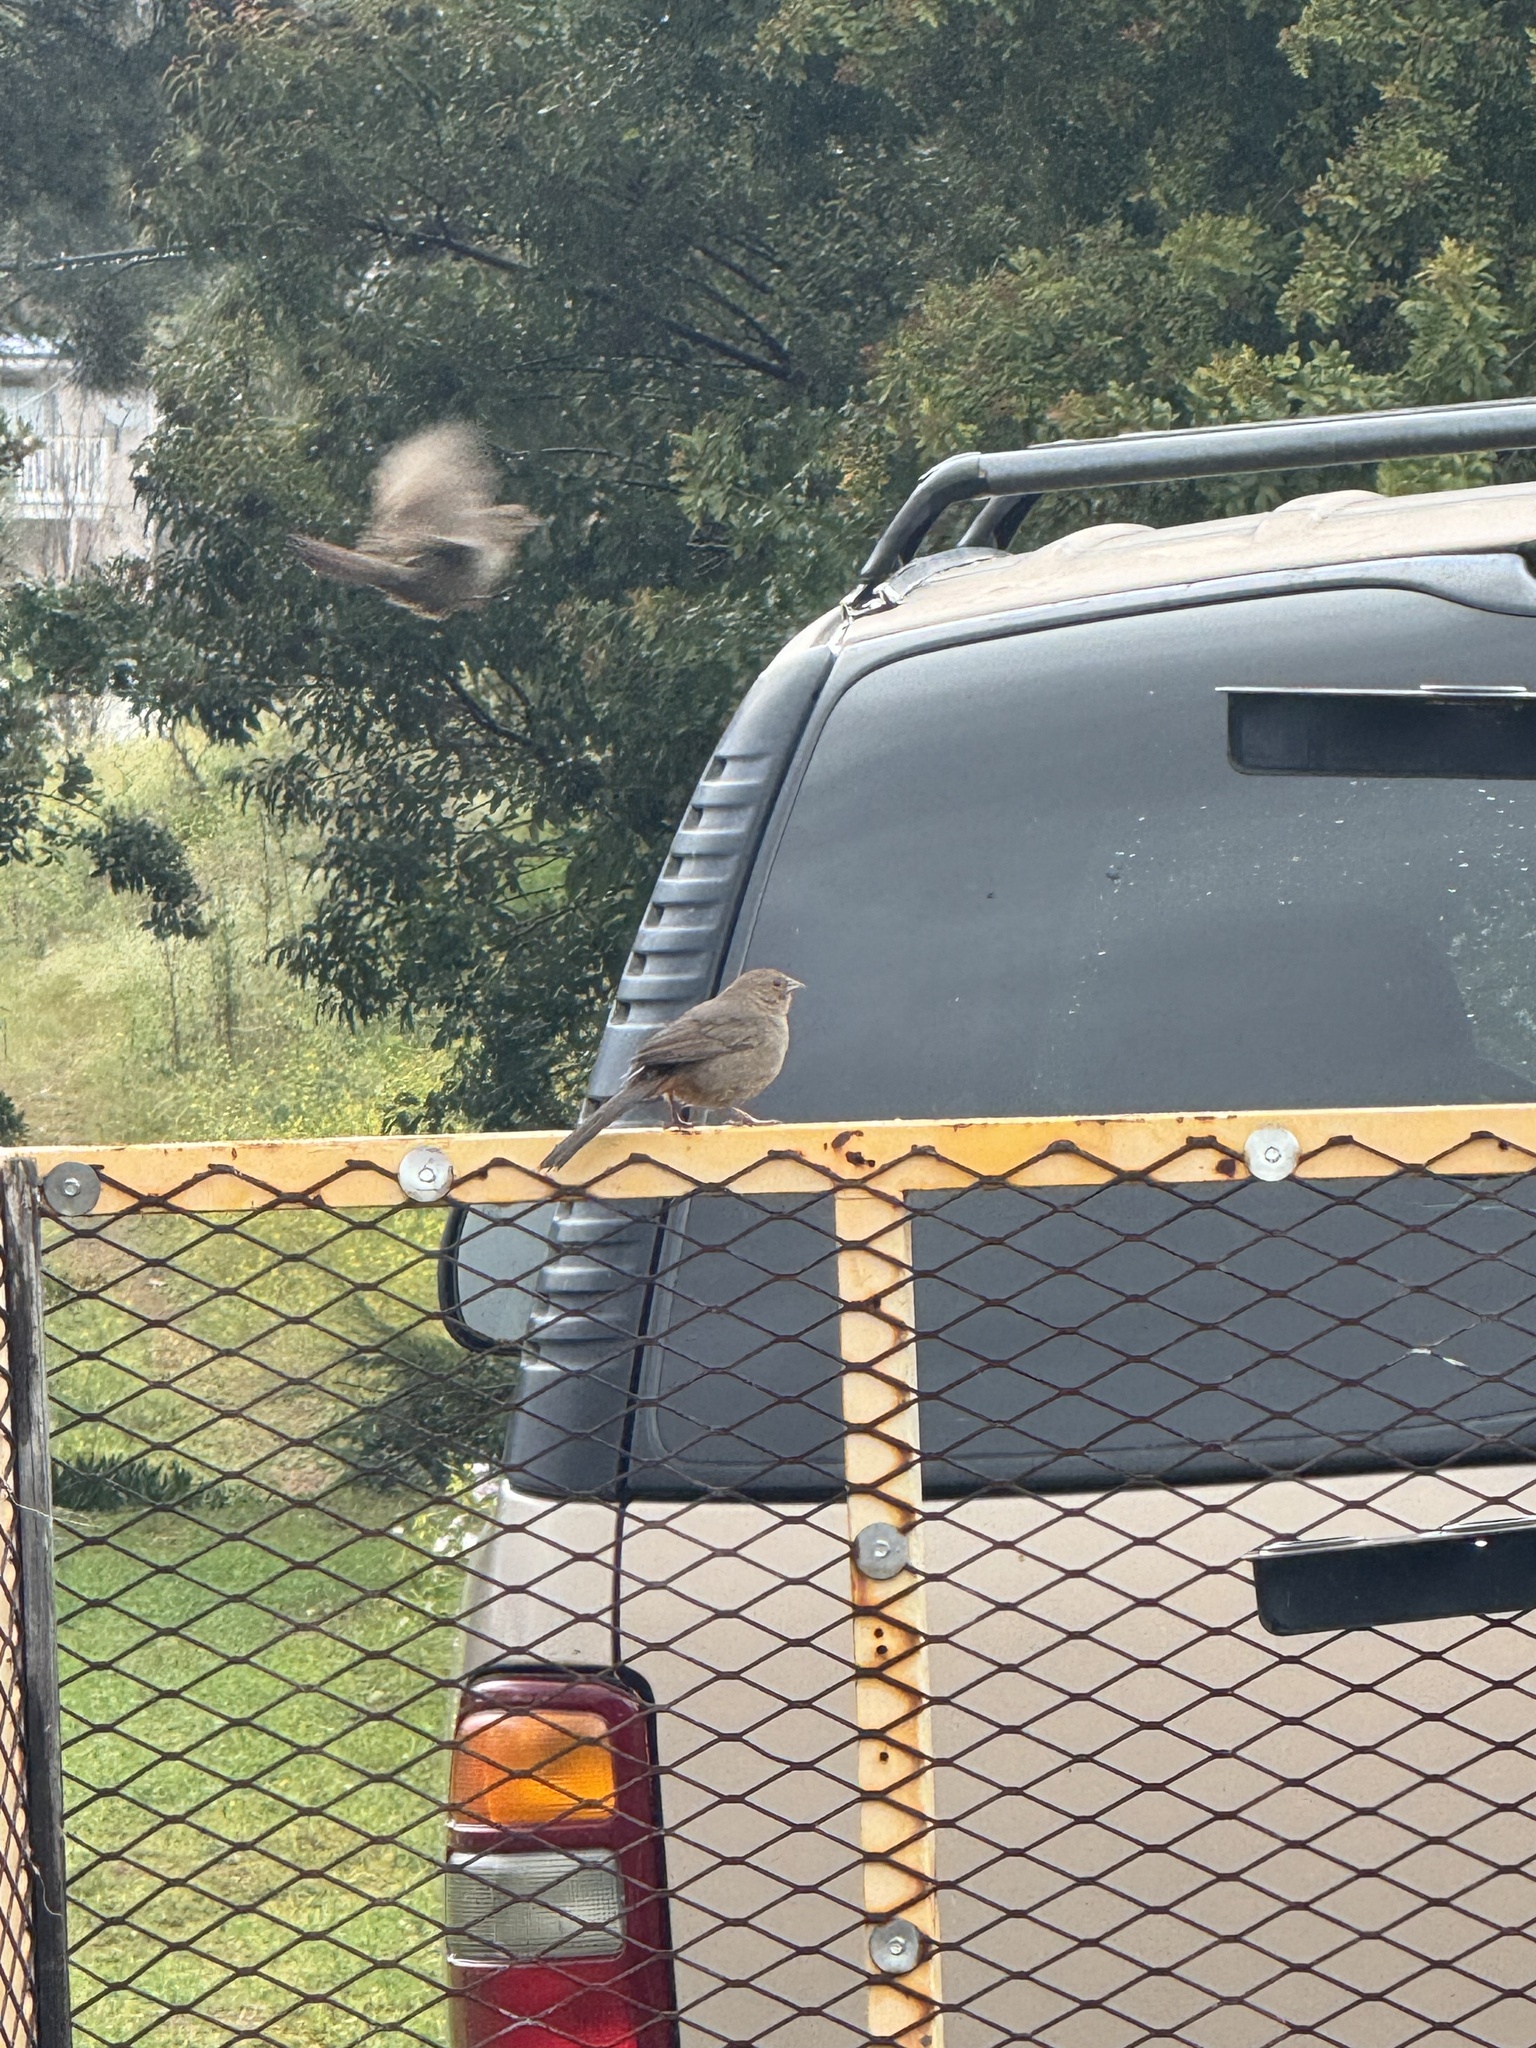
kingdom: Animalia
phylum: Chordata
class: Aves
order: Passeriformes
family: Passerellidae
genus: Melozone
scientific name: Melozone crissalis
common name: California towhee
